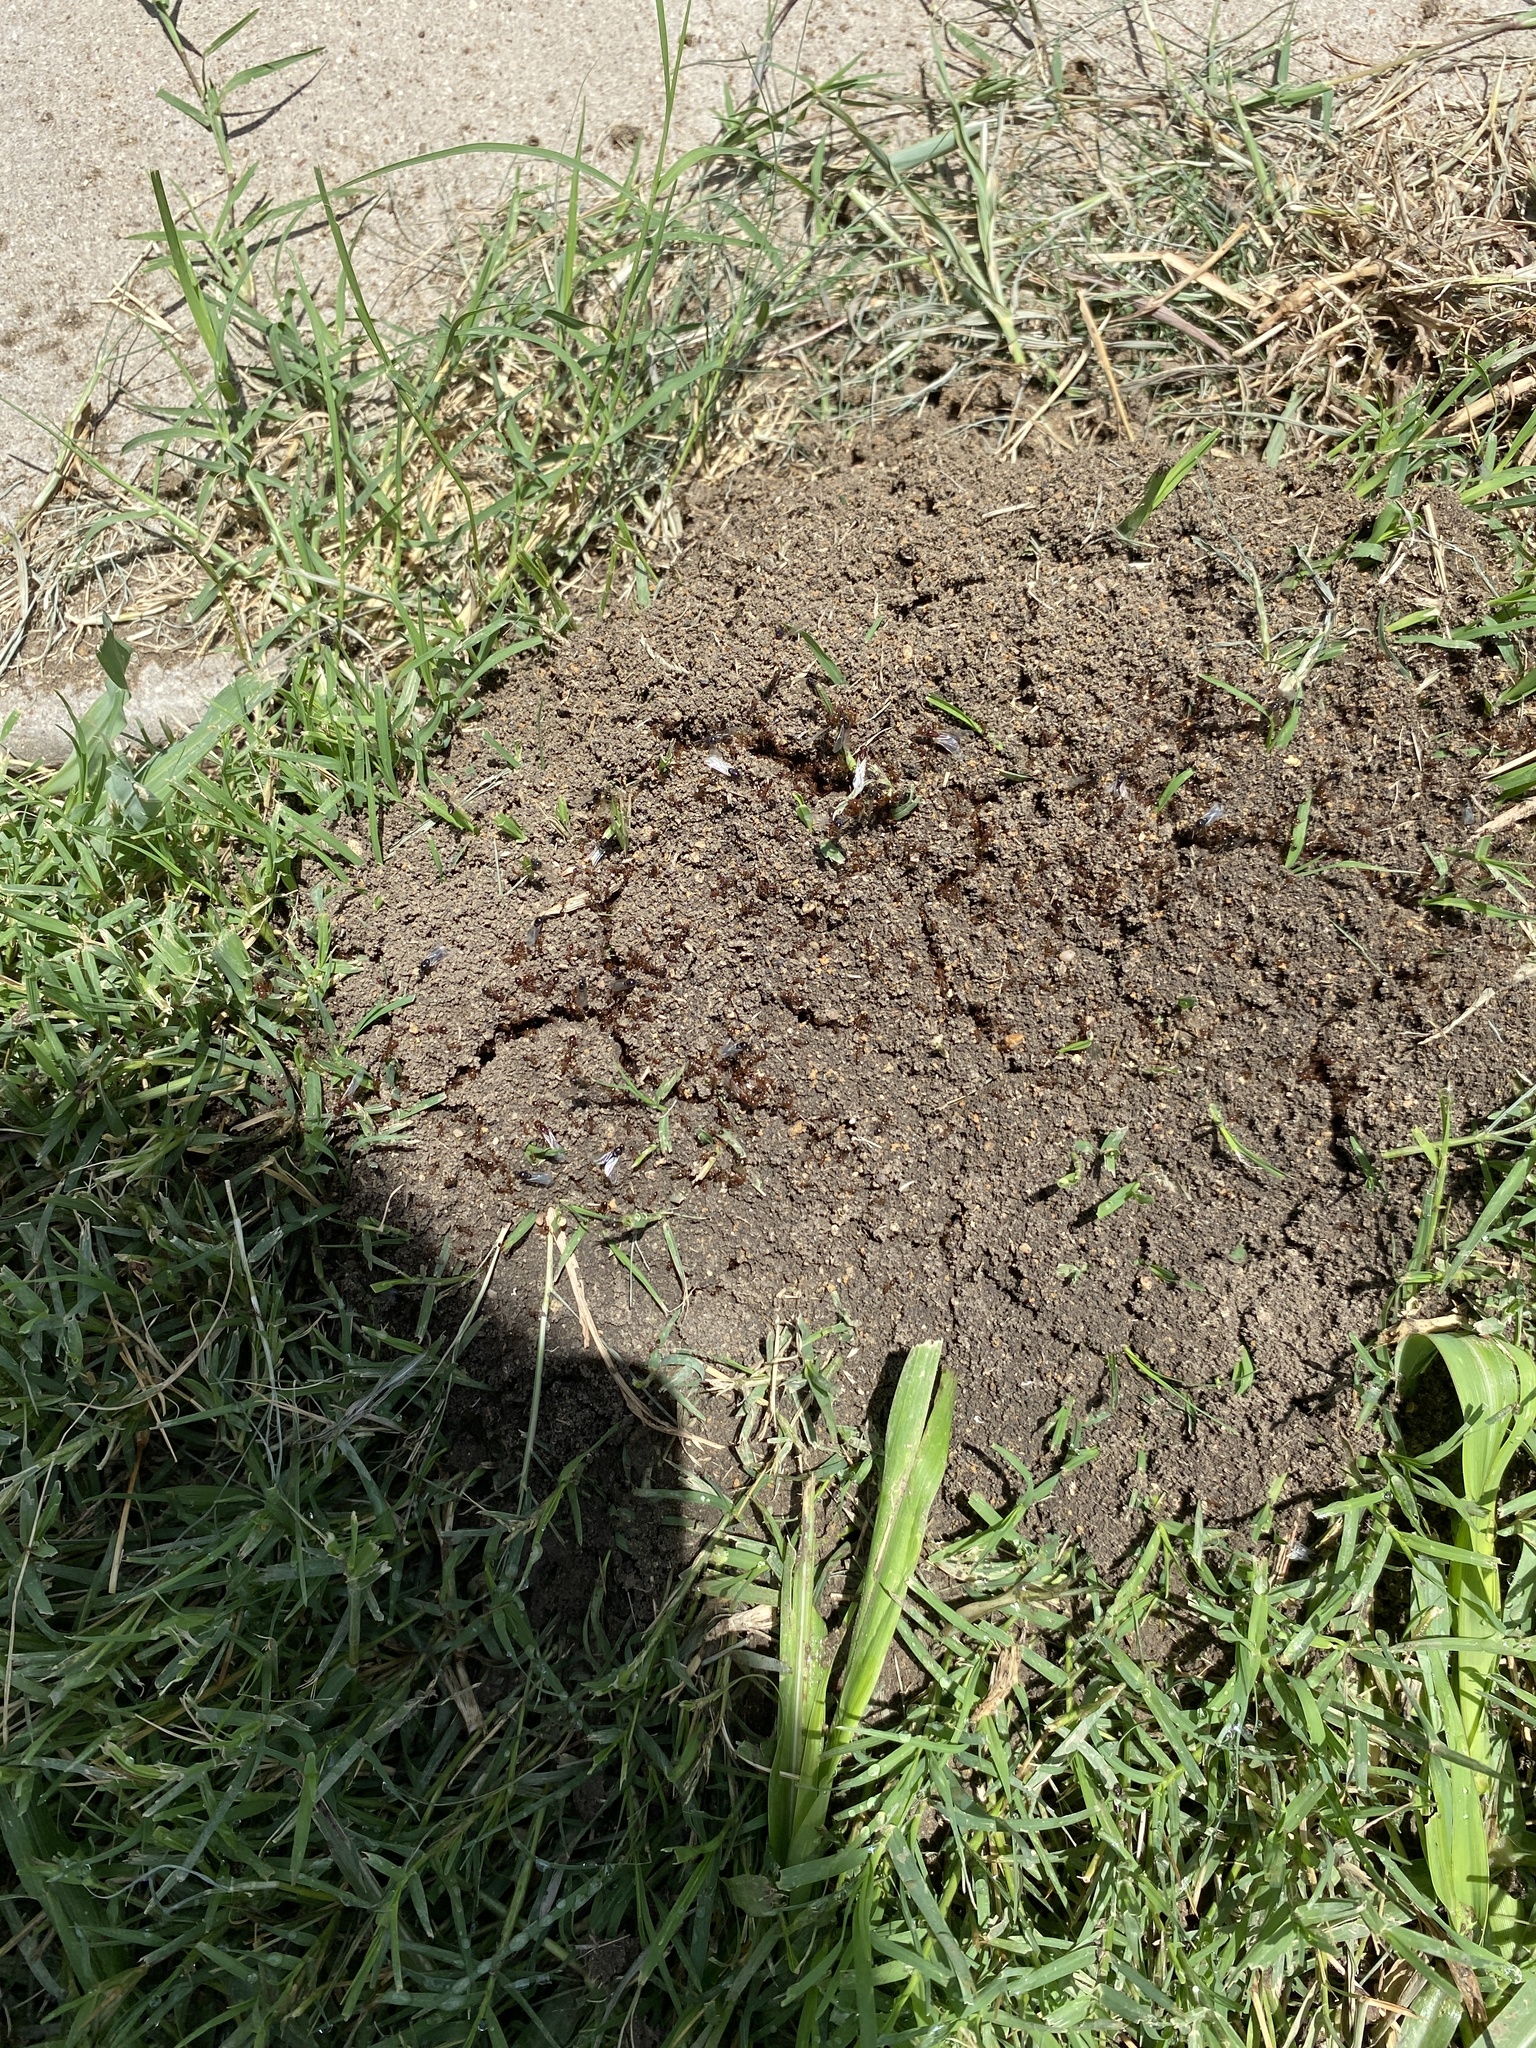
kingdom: Animalia
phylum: Arthropoda
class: Insecta
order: Hymenoptera
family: Formicidae
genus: Solenopsis
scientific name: Solenopsis invicta
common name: Red imported fire ant
